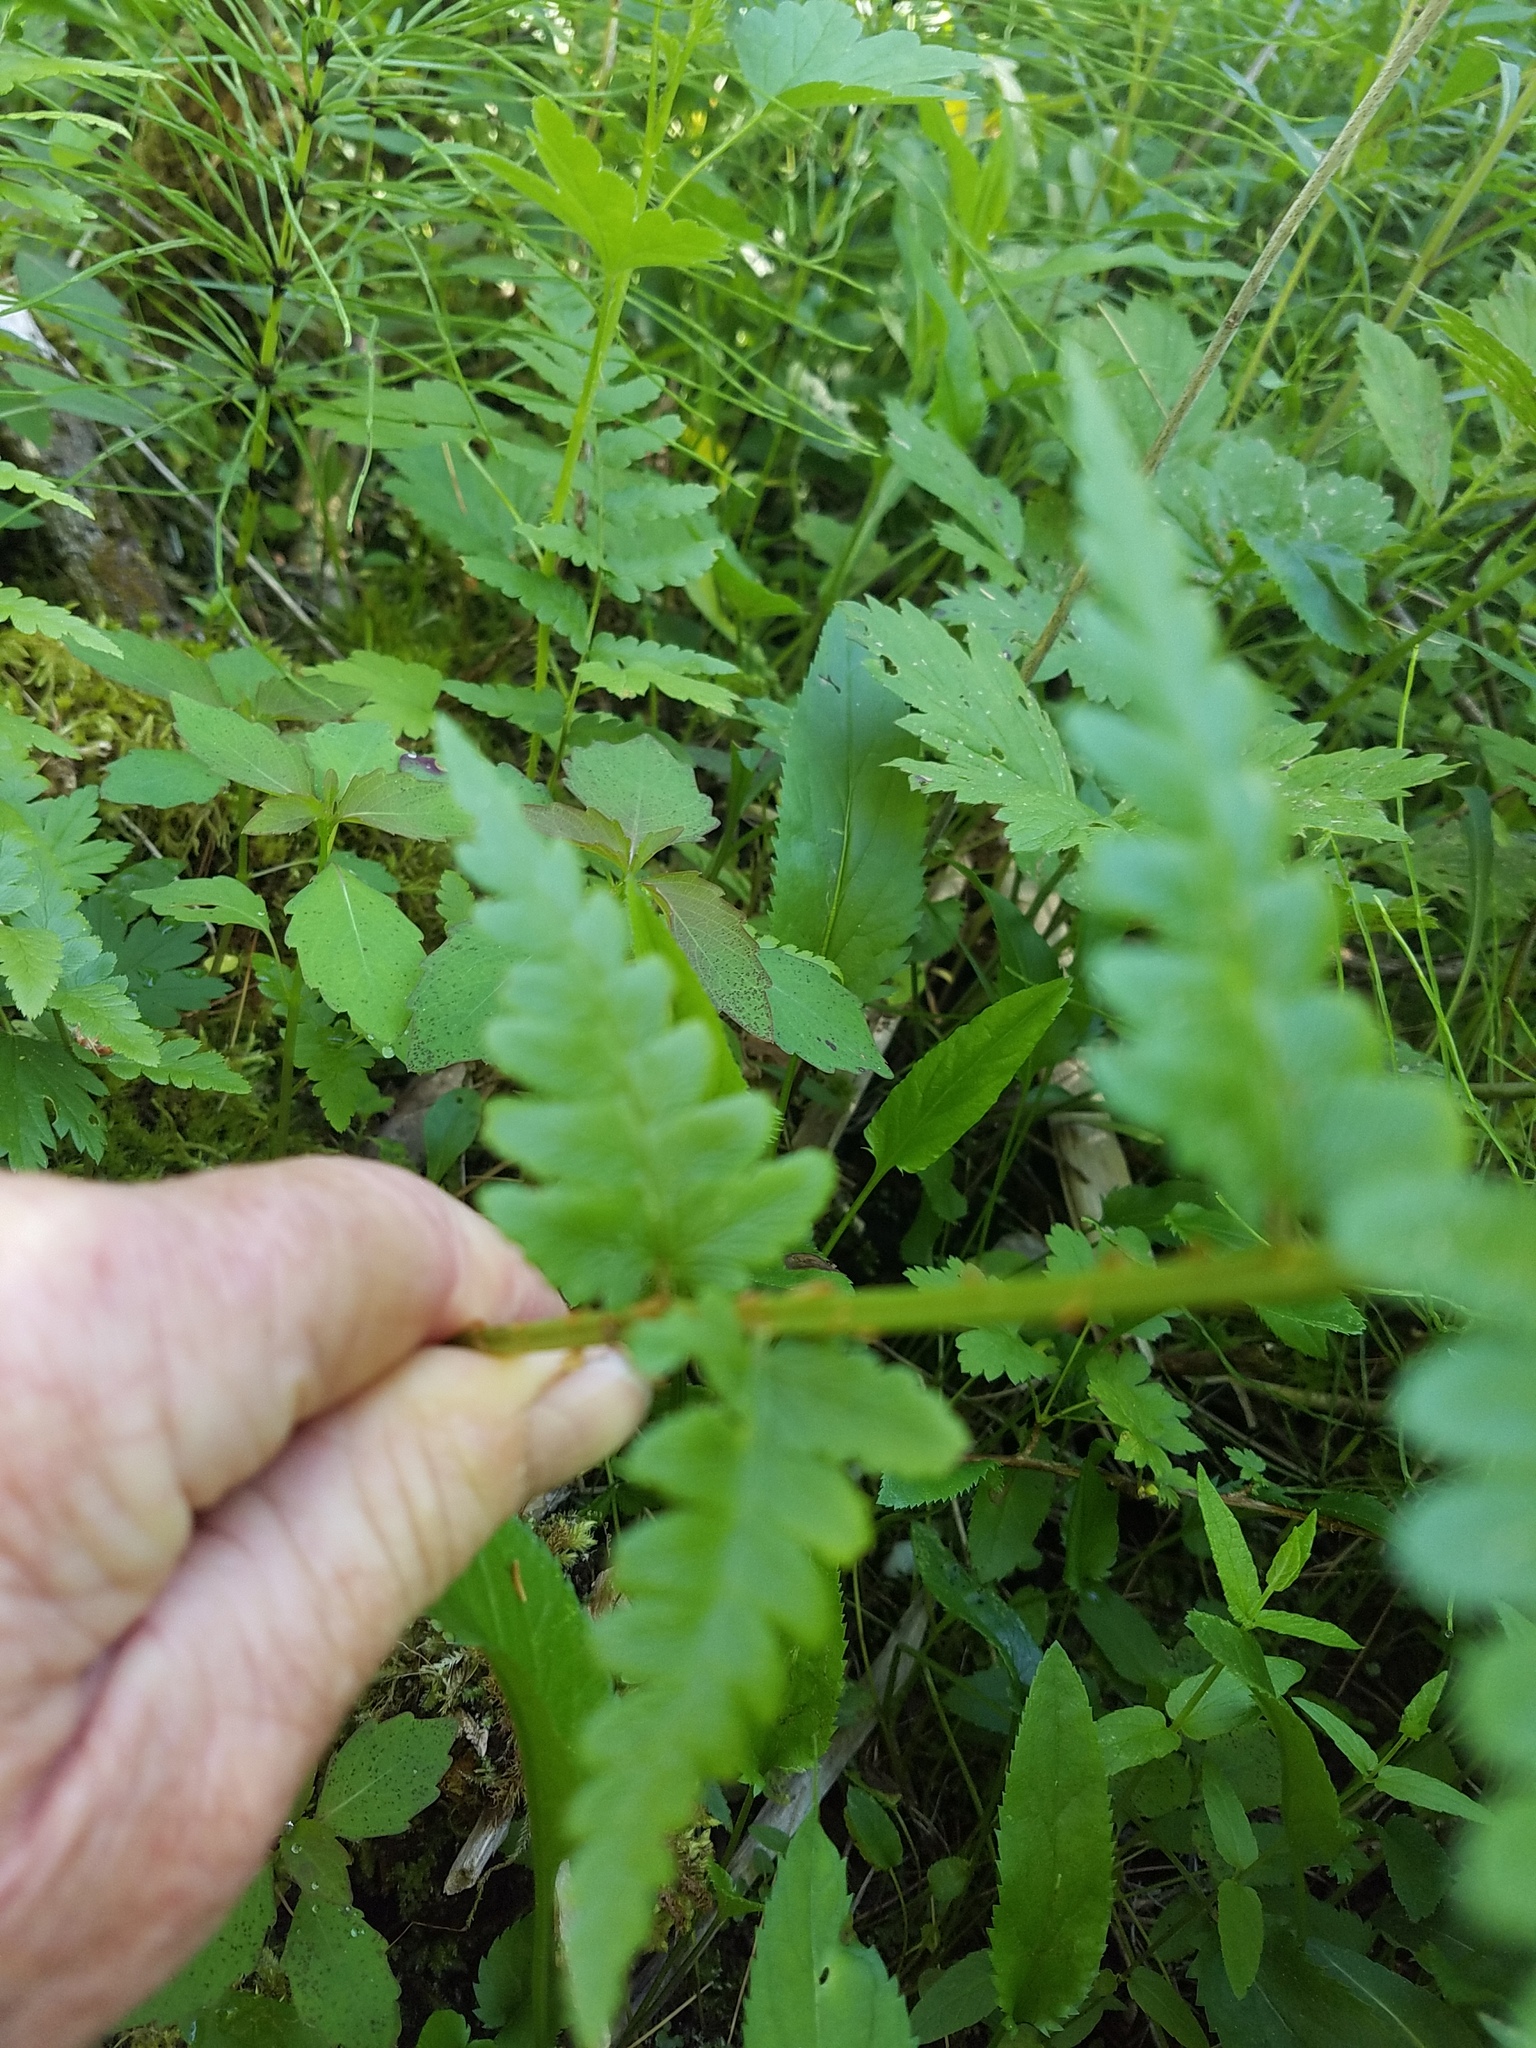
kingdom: Plantae
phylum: Tracheophyta
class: Polypodiopsida
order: Polypodiales
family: Dryopteridaceae
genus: Dryopteris
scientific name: Dryopteris cristata
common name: Crested wood fern
